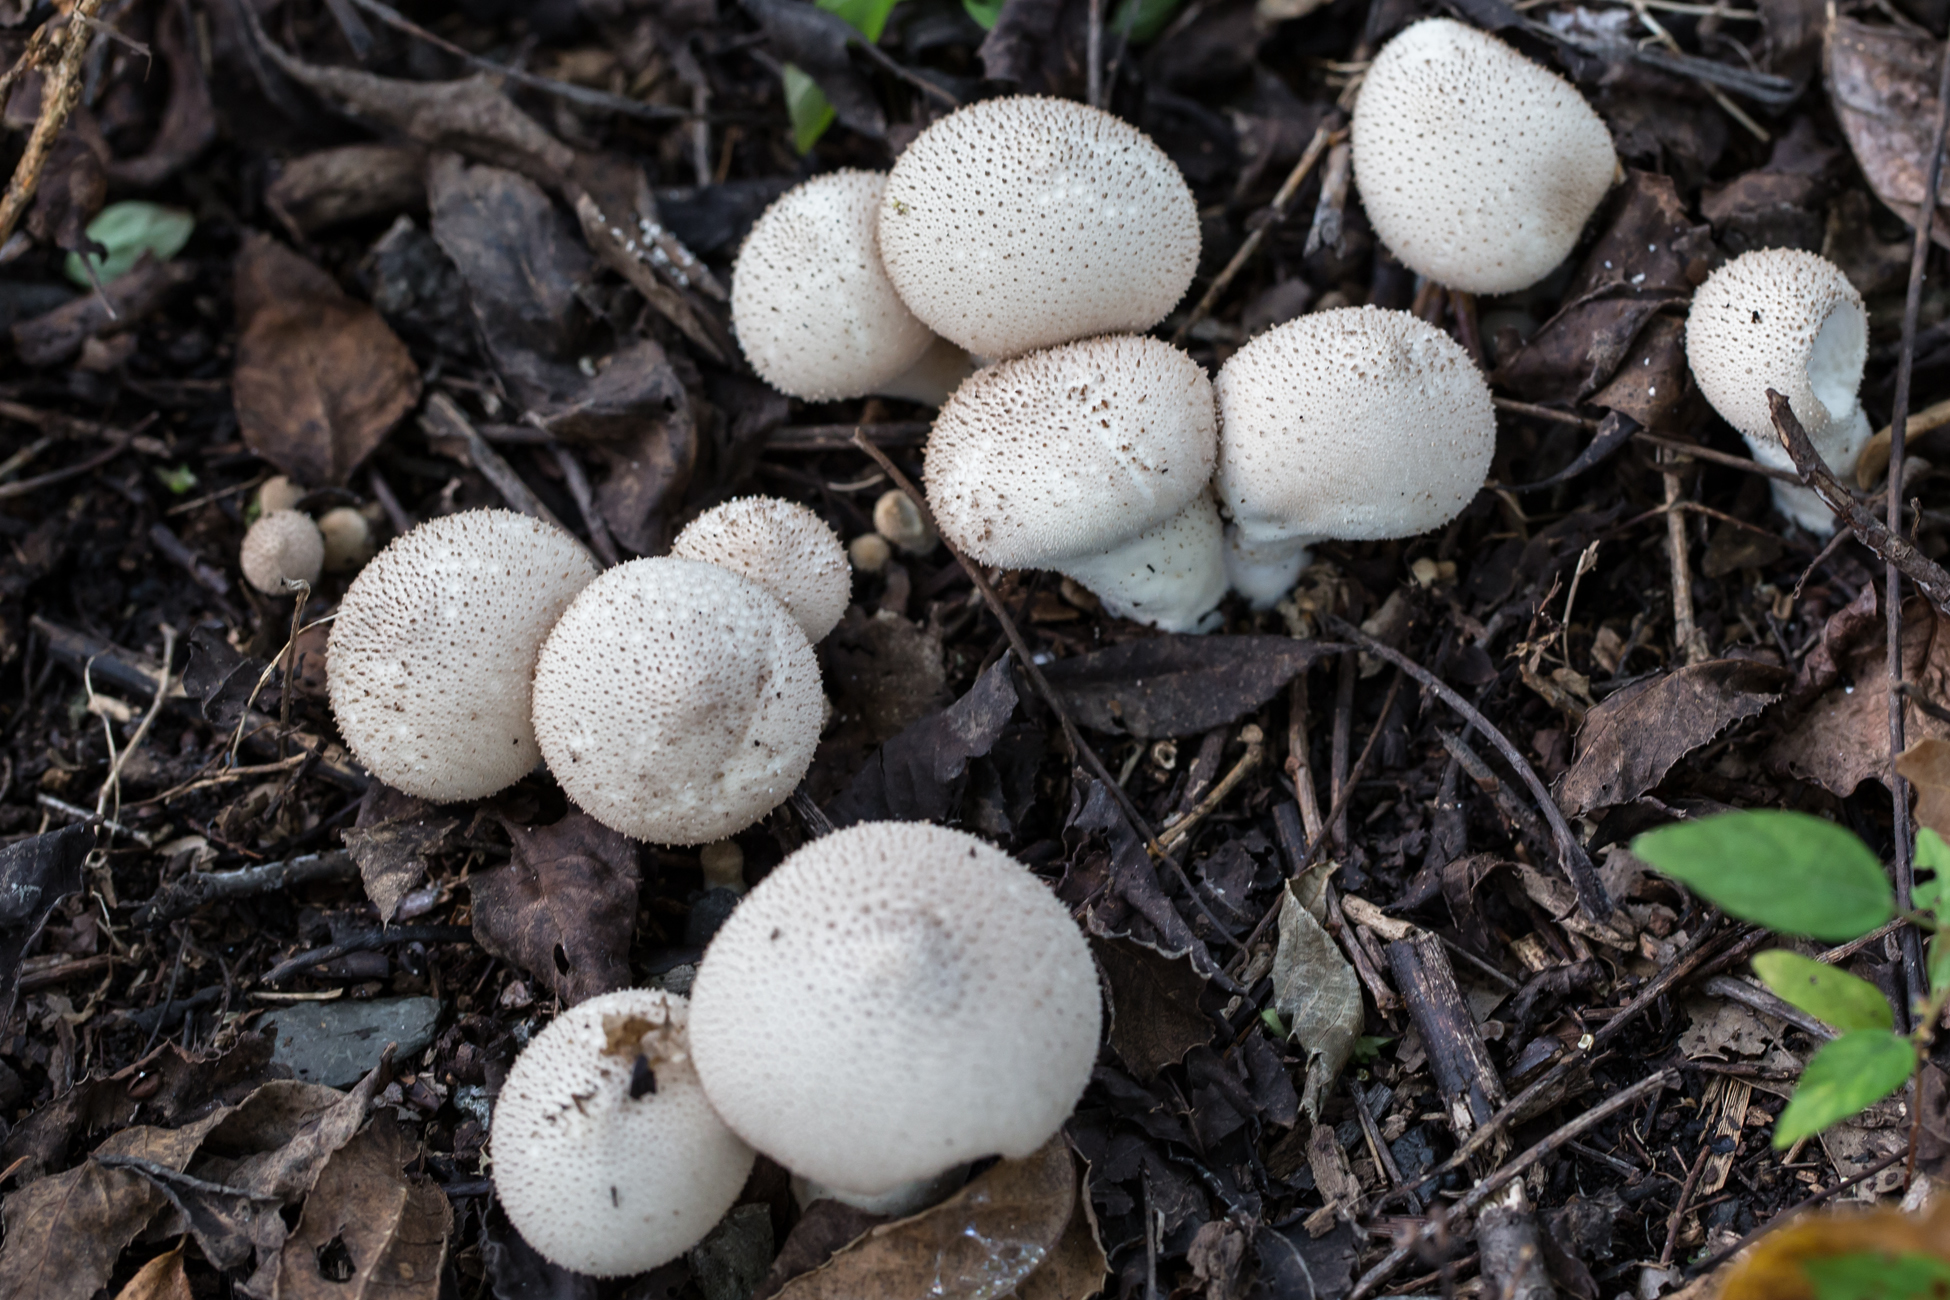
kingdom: Fungi
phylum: Basidiomycota
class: Agaricomycetes
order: Agaricales
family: Lycoperdaceae
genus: Lycoperdon
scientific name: Lycoperdon perlatum
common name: Common puffball
